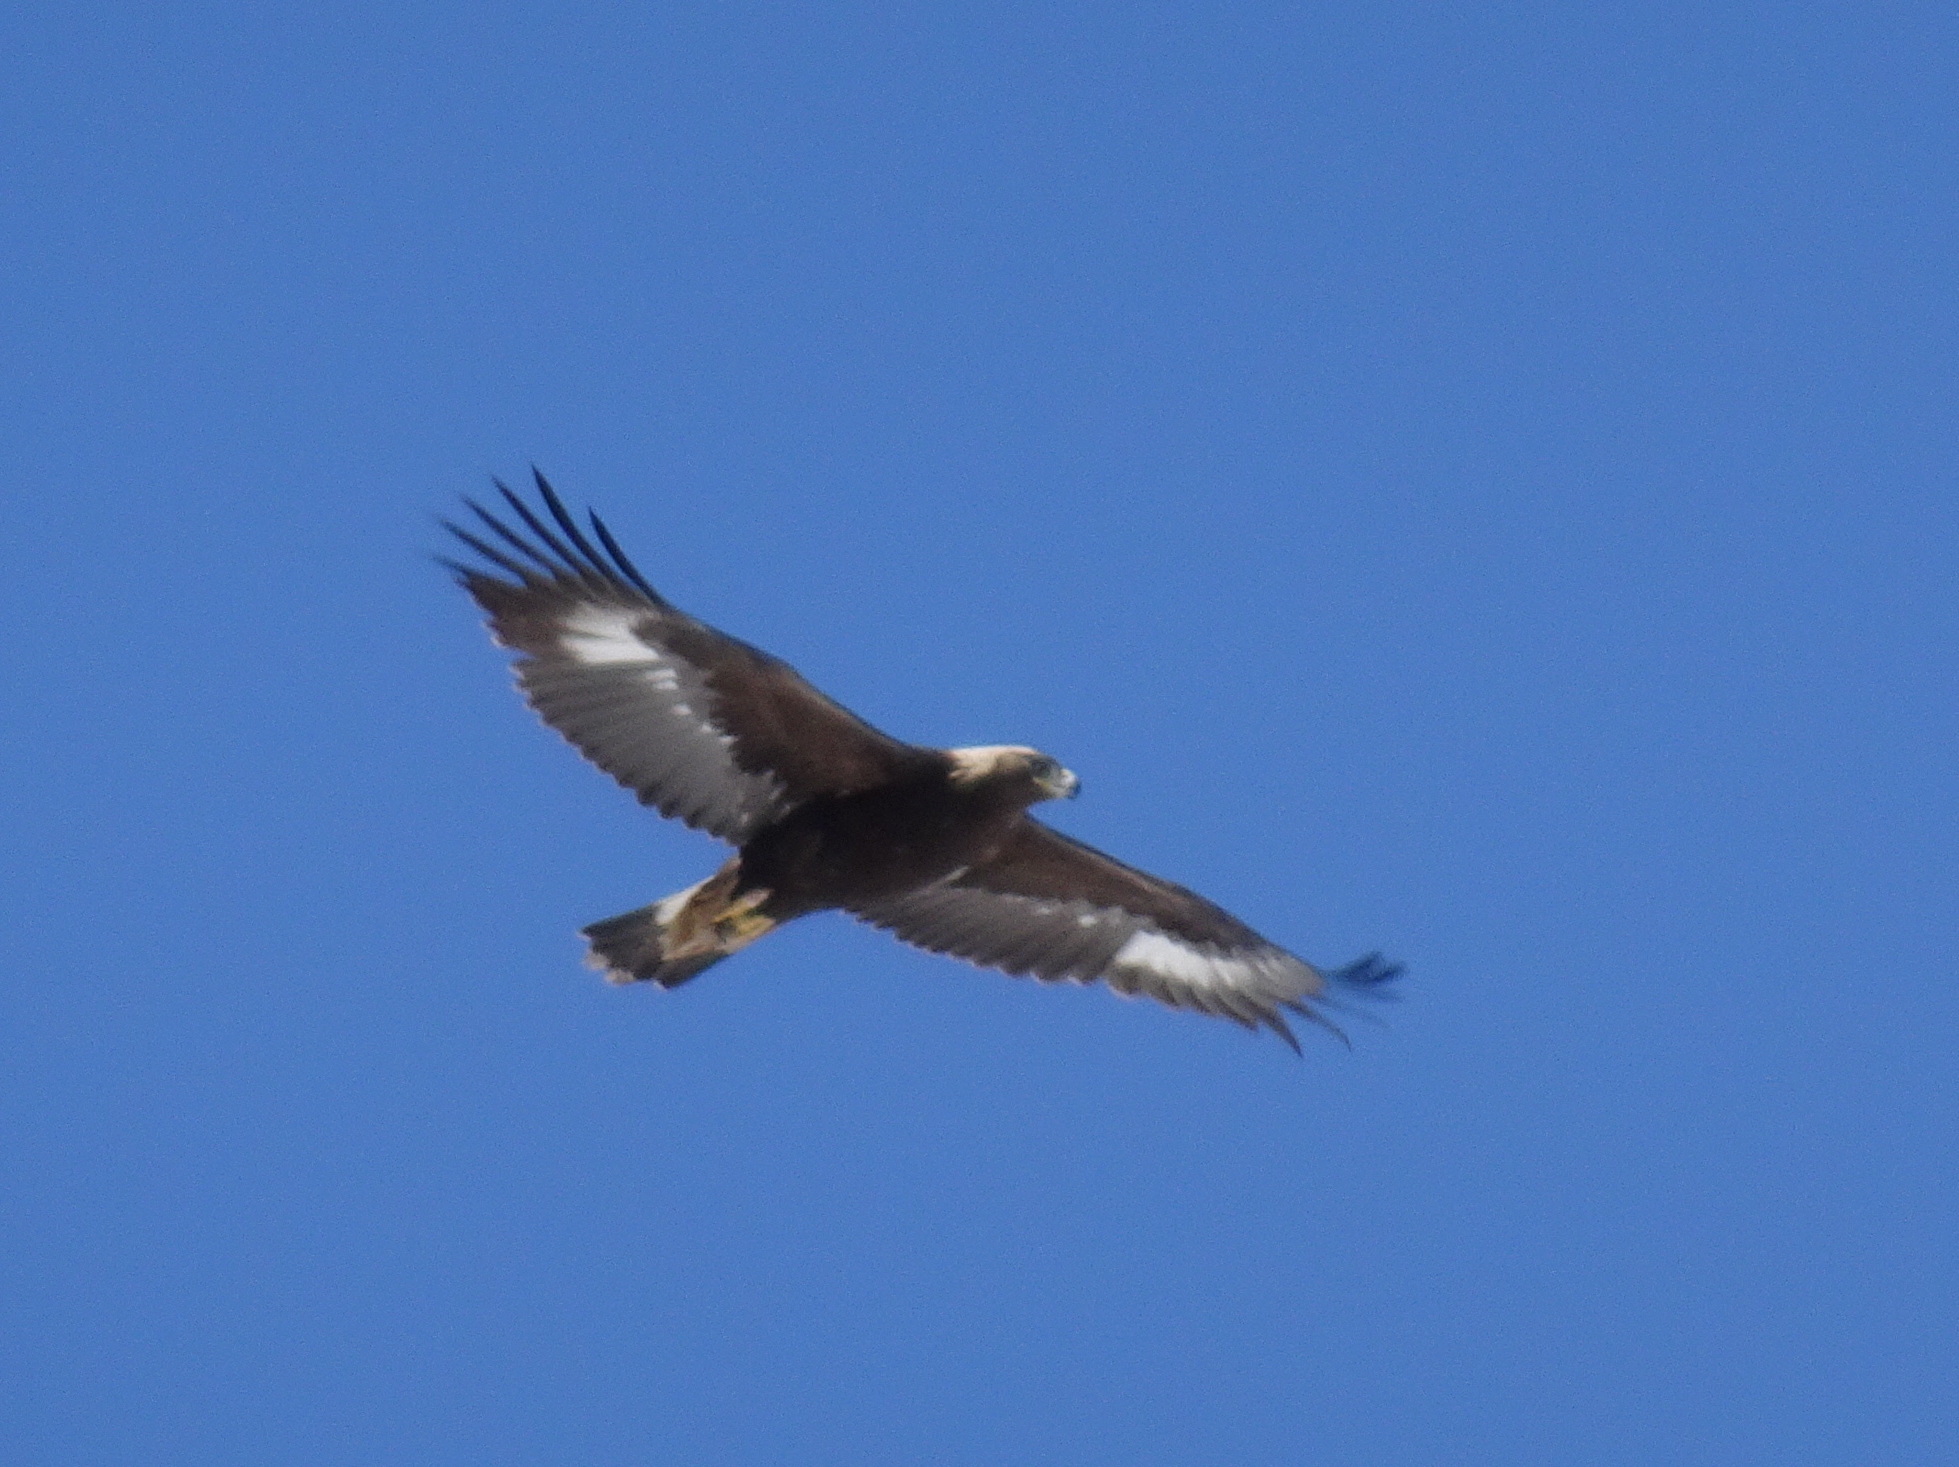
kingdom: Animalia
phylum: Chordata
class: Aves
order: Accipitriformes
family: Accipitridae
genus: Aquila
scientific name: Aquila chrysaetos
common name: Golden eagle
